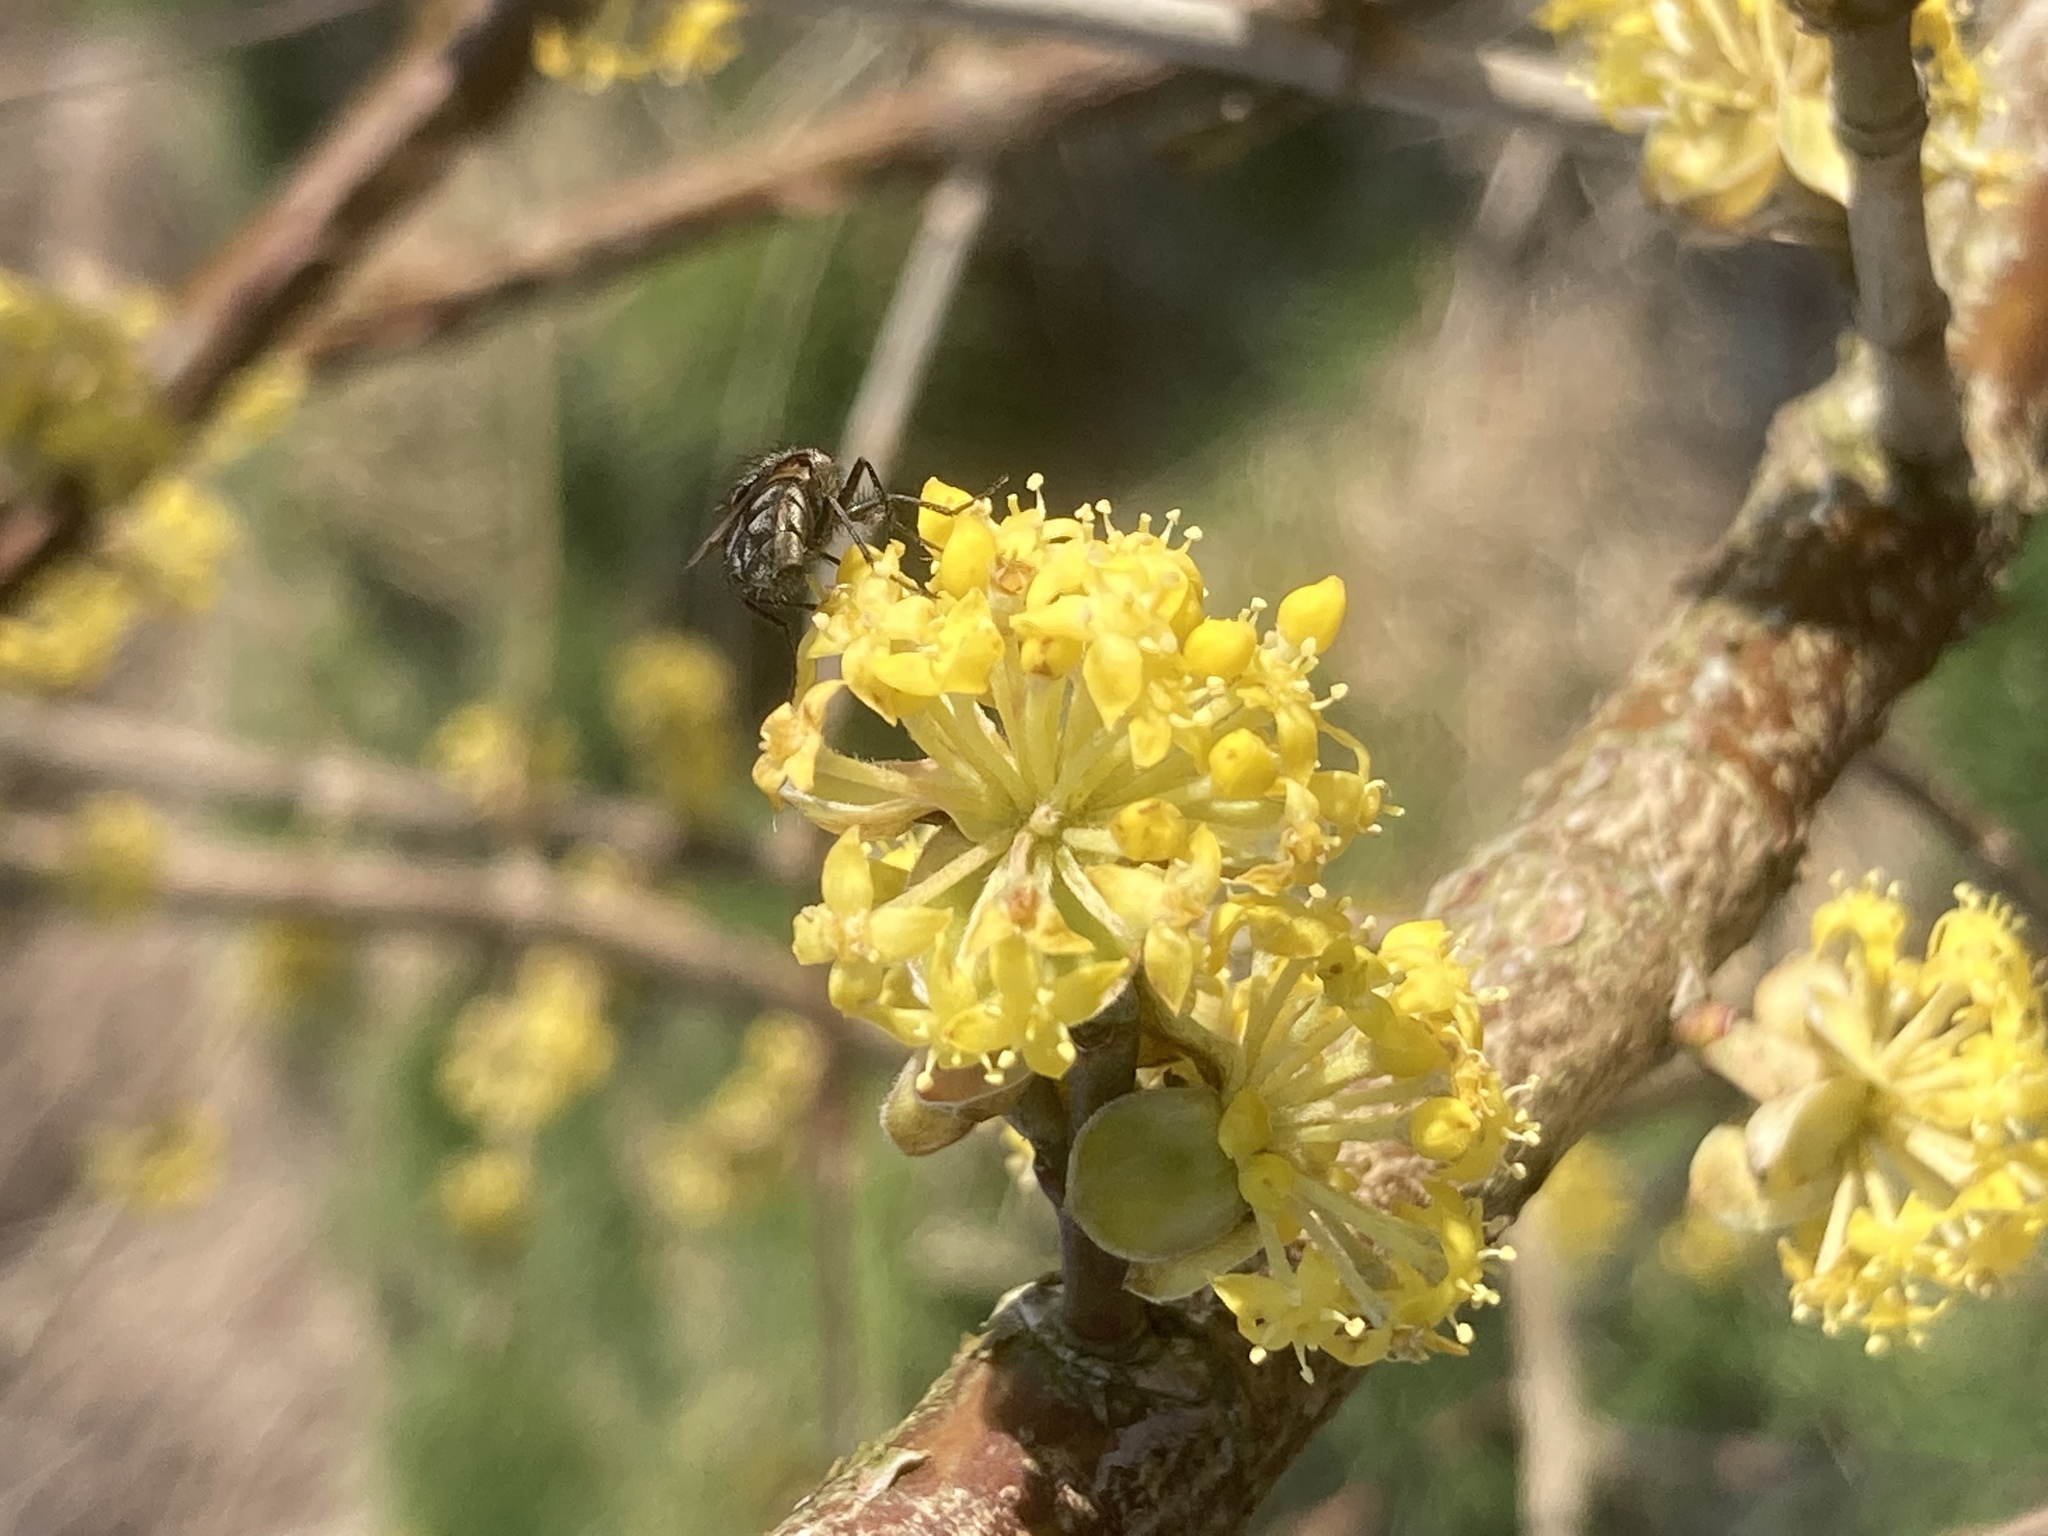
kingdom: Plantae
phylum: Tracheophyta
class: Magnoliopsida
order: Cornales
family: Cornaceae
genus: Cornus
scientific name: Cornus mas
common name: Cornelian-cherry
